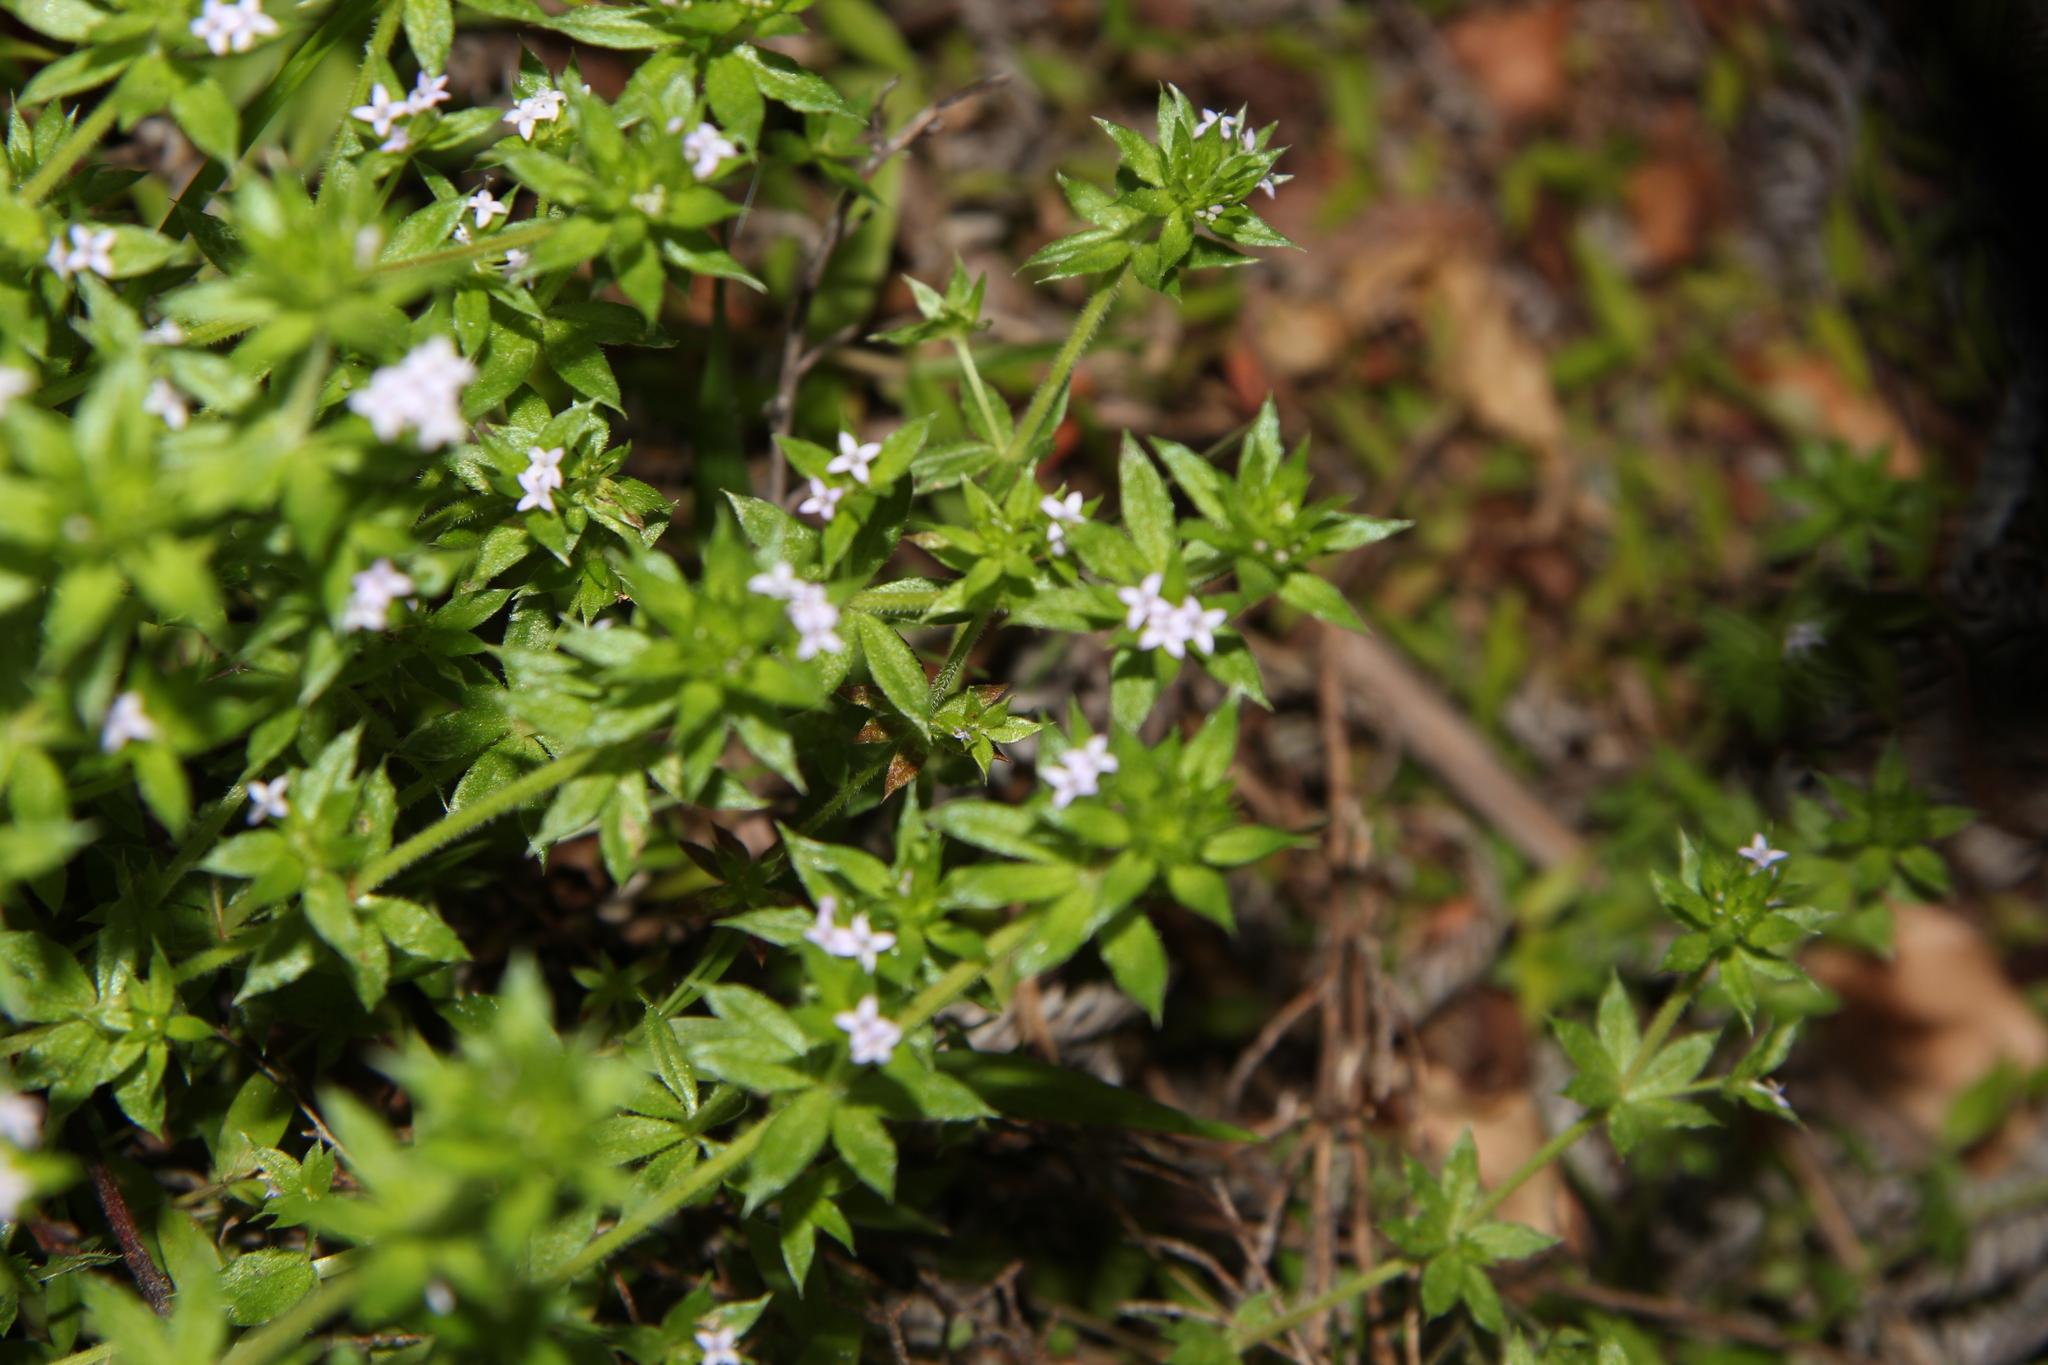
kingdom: Plantae
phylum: Tracheophyta
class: Magnoliopsida
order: Gentianales
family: Rubiaceae
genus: Sherardia
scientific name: Sherardia arvensis
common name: Field madder
